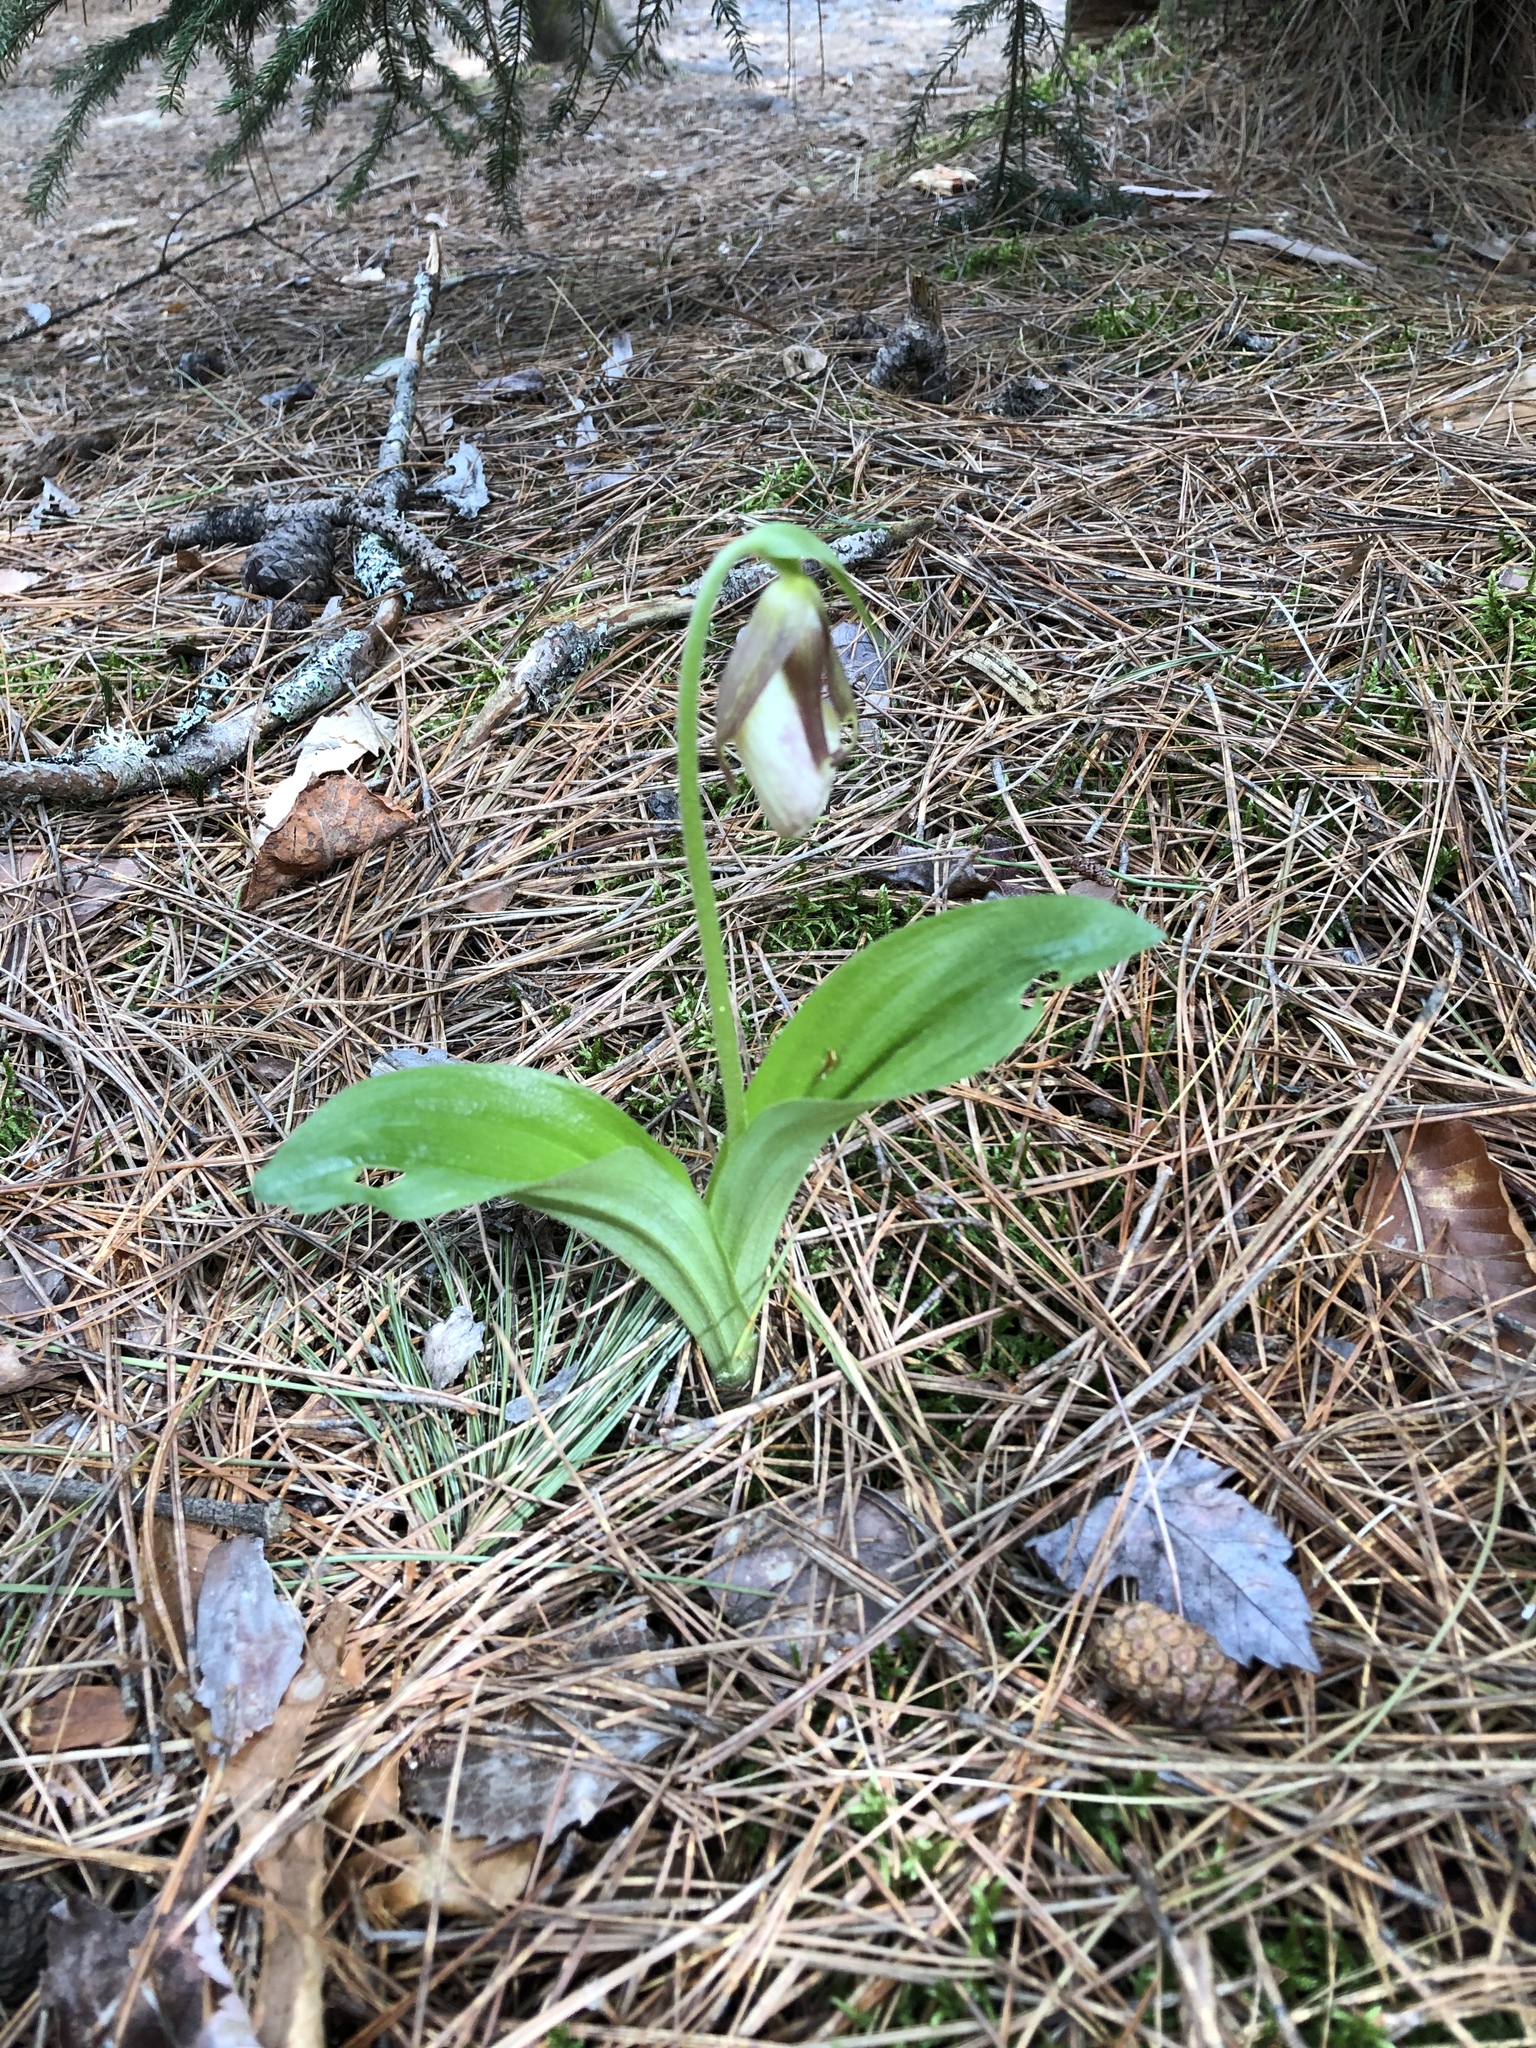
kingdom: Plantae
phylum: Tracheophyta
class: Liliopsida
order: Asparagales
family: Orchidaceae
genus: Cypripedium
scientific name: Cypripedium acaule
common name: Pink lady's-slipper
